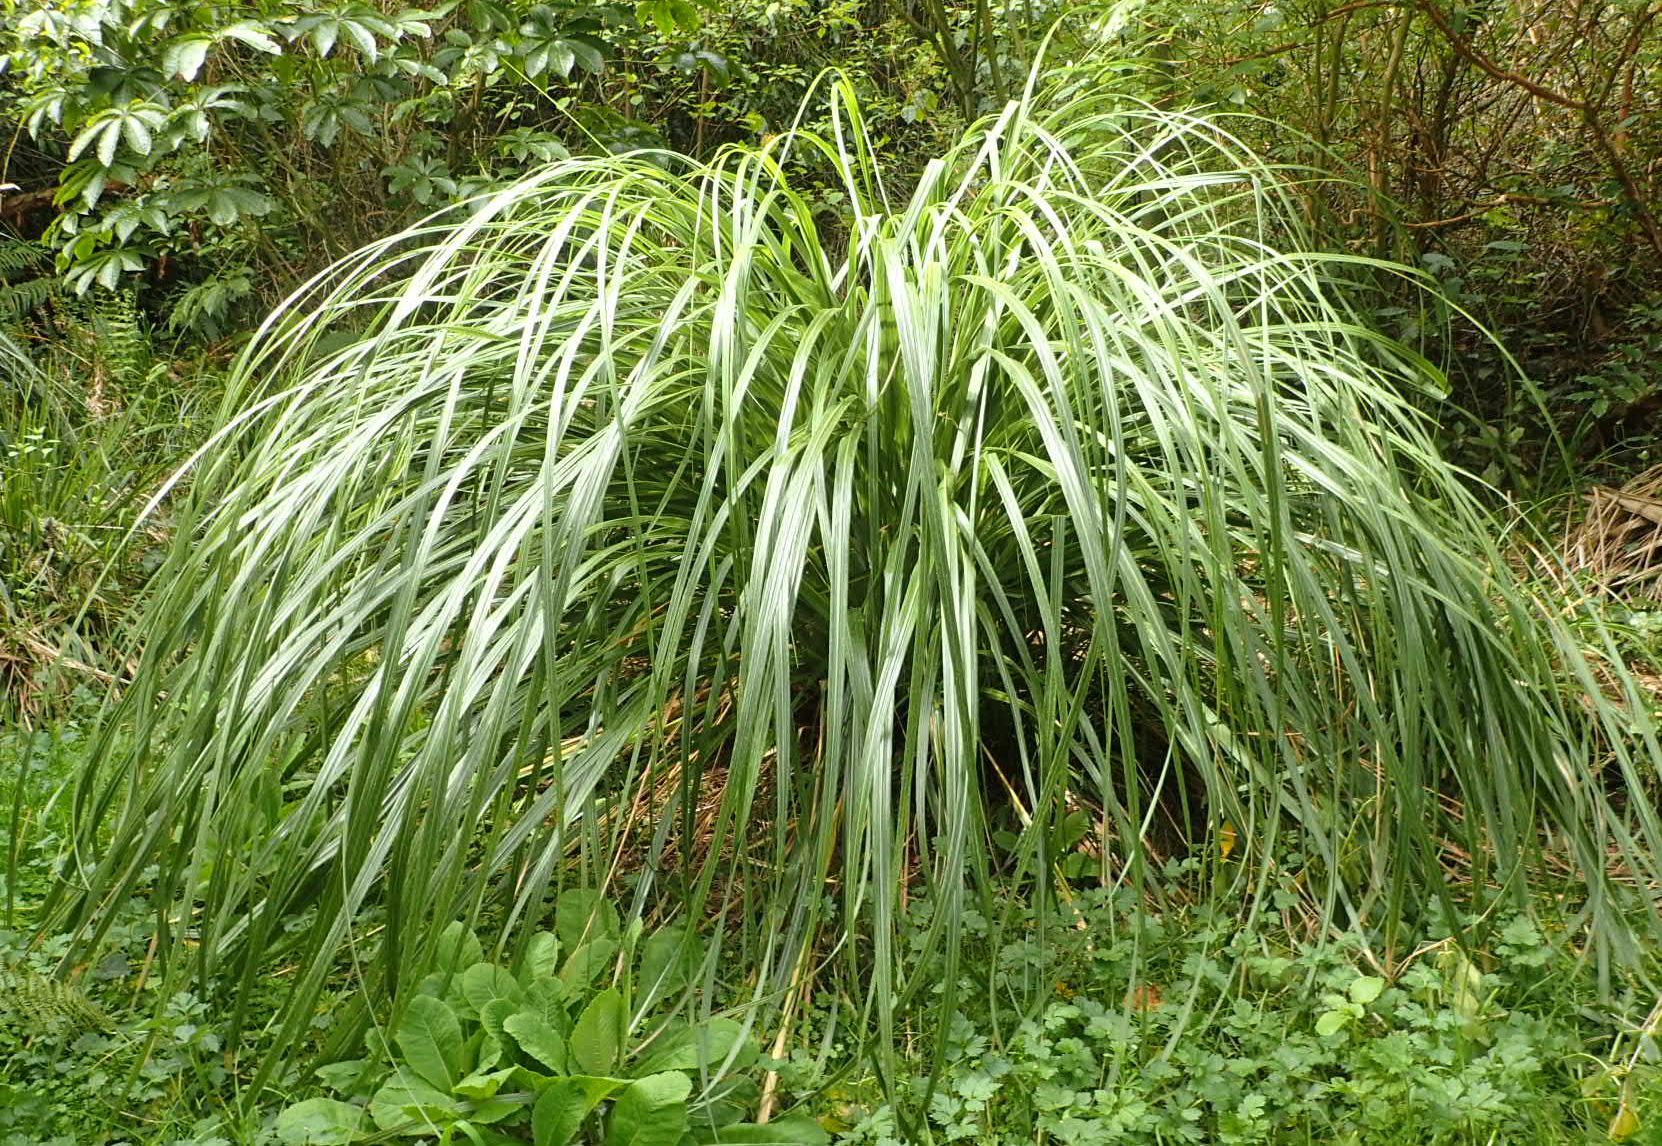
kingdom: Plantae
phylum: Tracheophyta
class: Liliopsida
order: Poales
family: Poaceae
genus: Austroderia
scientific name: Austroderia richardii
